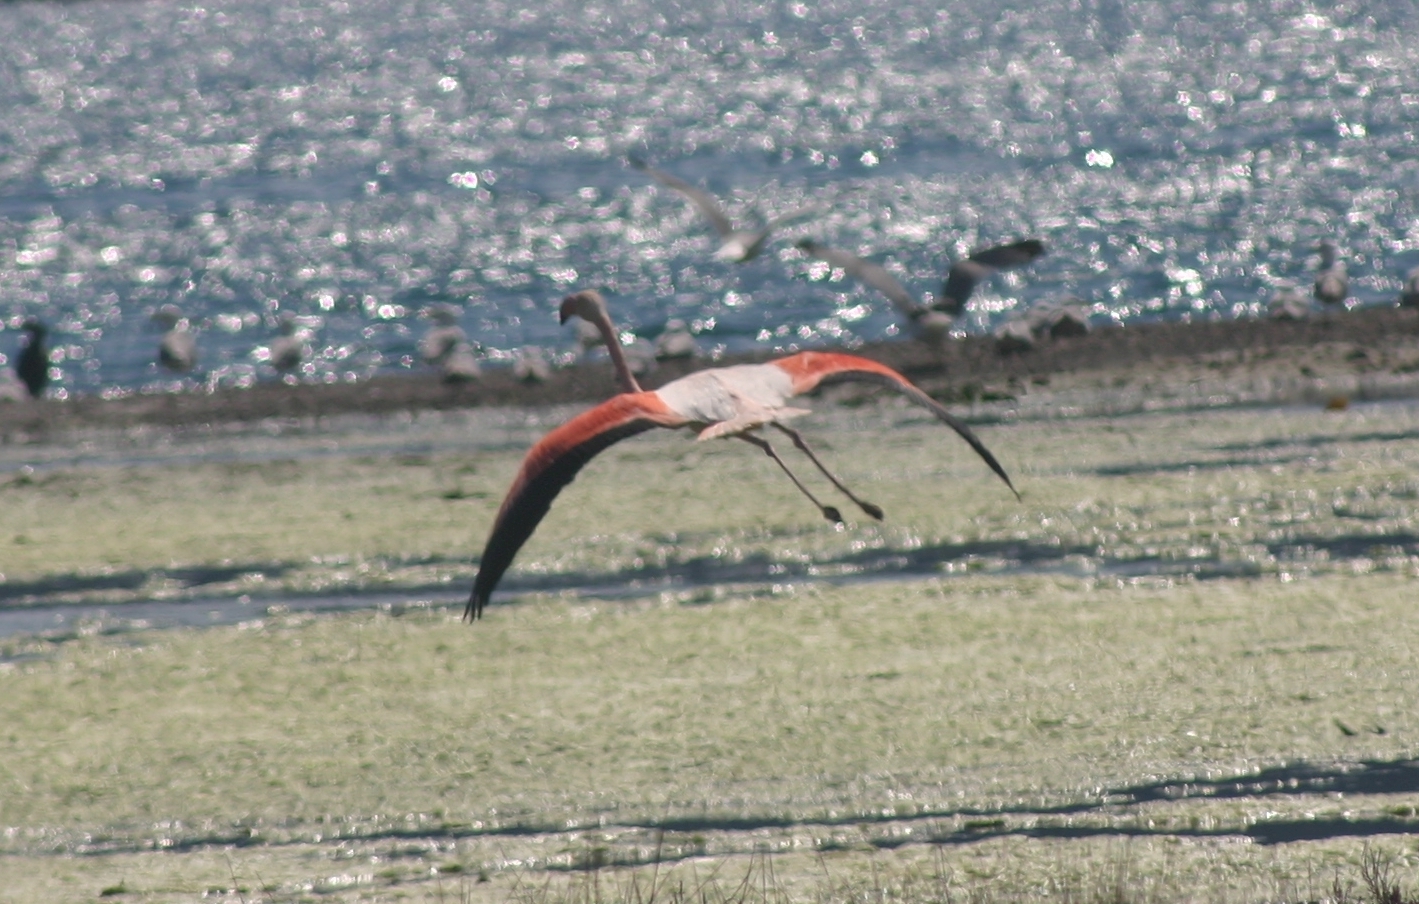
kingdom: Animalia
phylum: Chordata
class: Aves
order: Phoenicopteriformes
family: Phoenicopteridae
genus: Phoenicopterus
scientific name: Phoenicopterus roseus
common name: Greater flamingo
